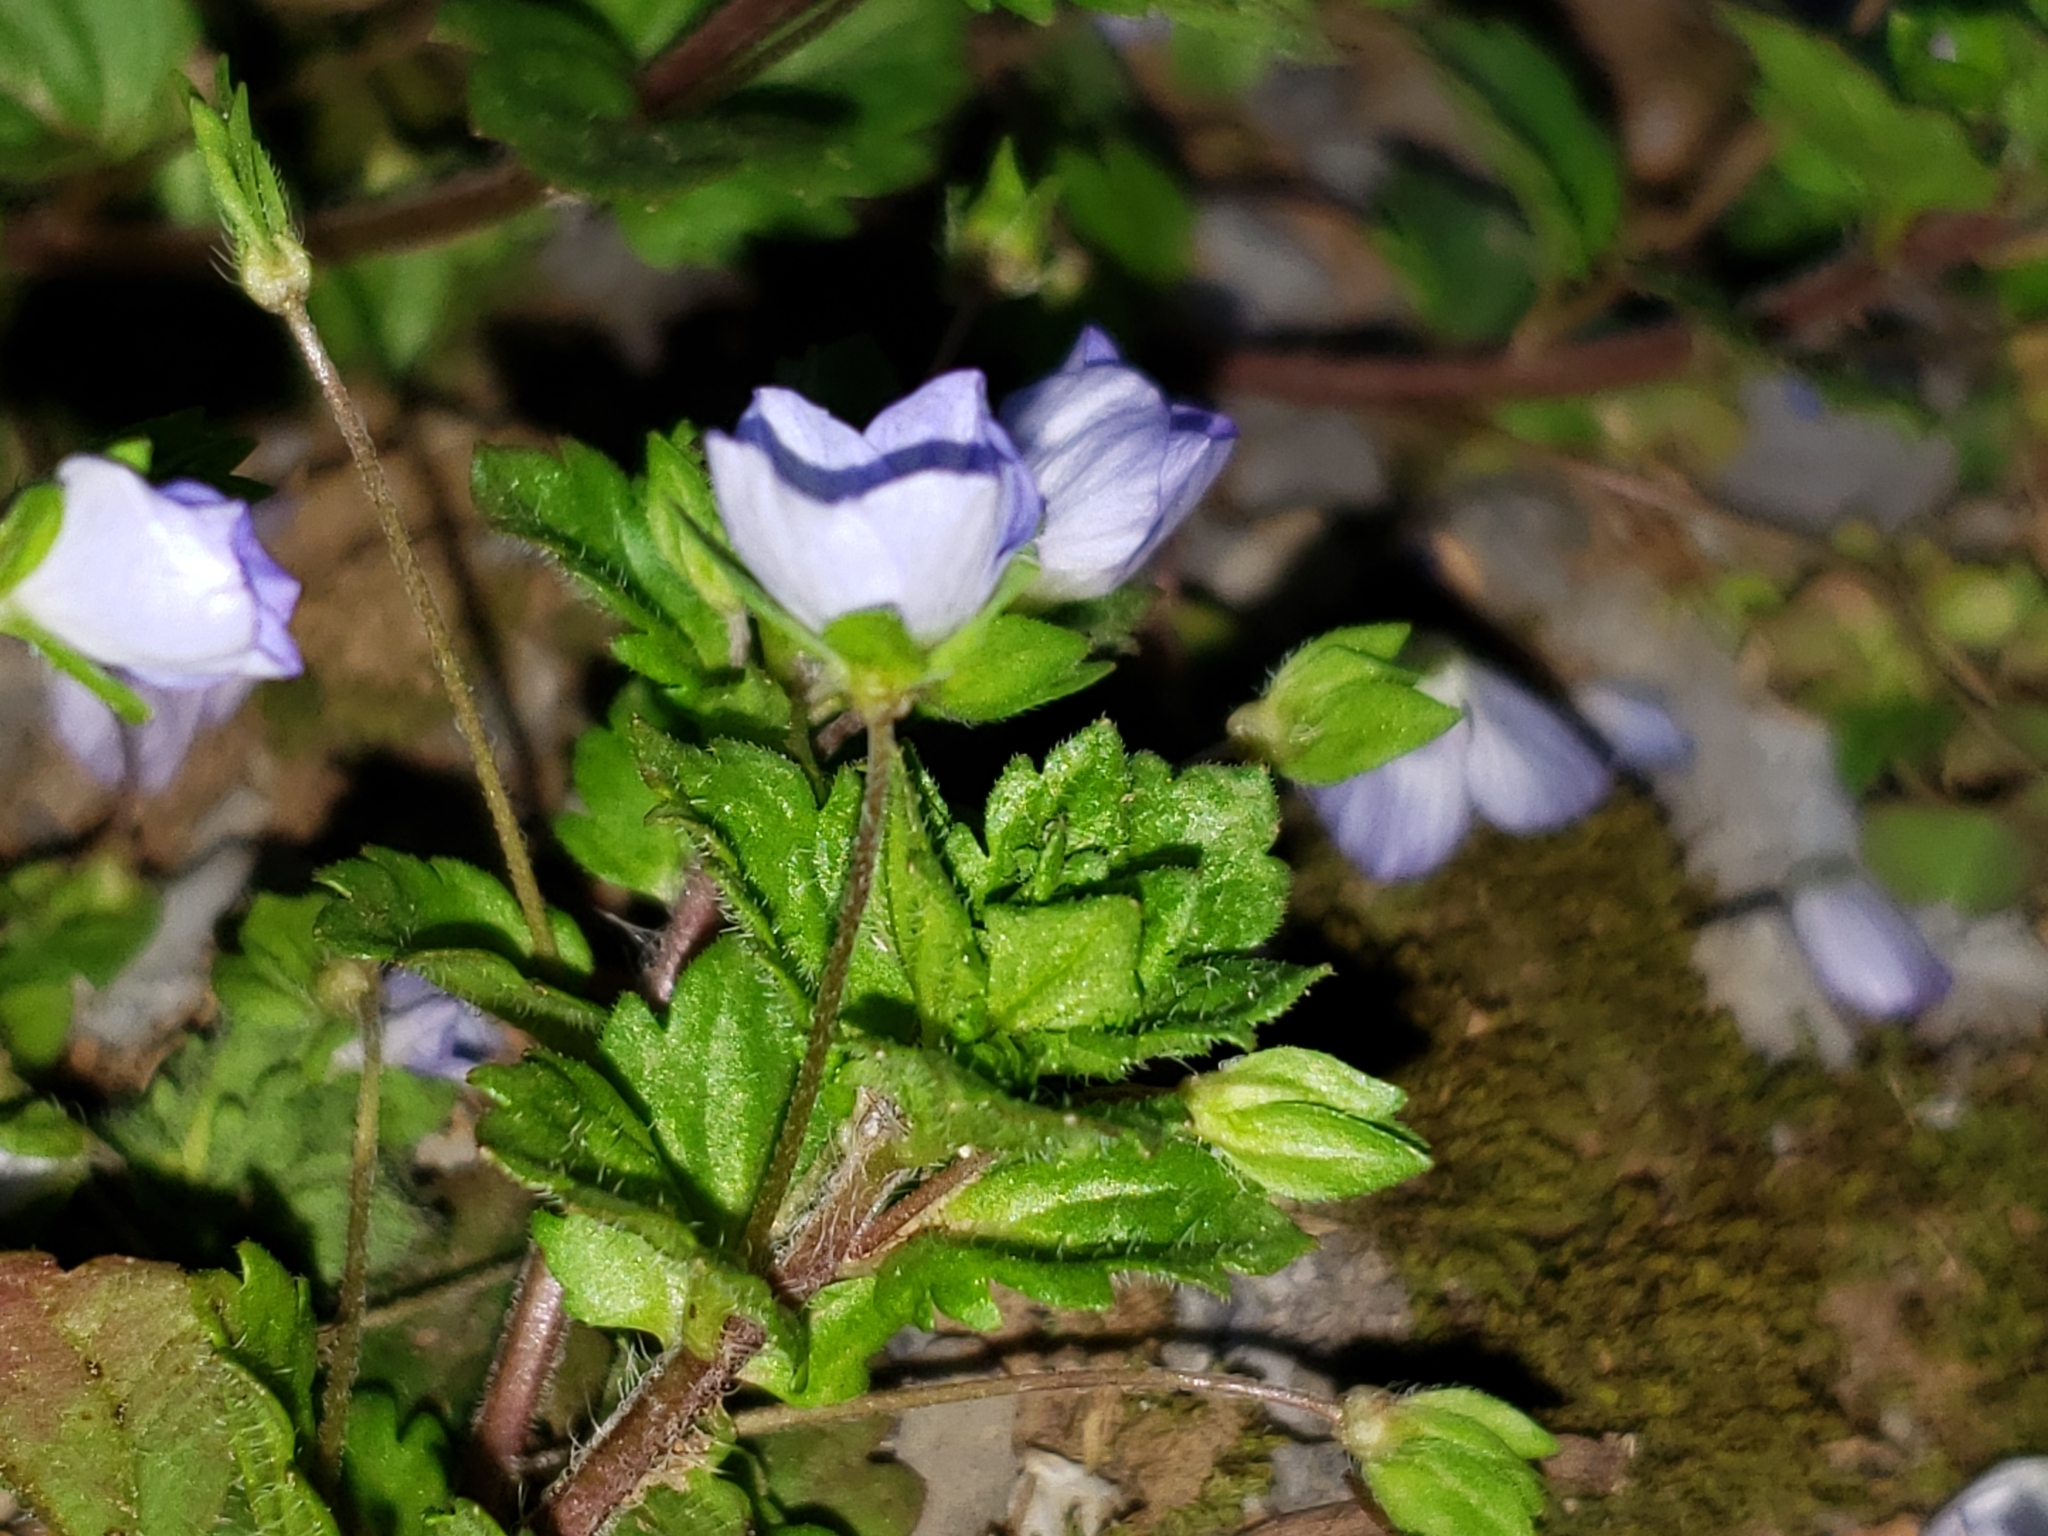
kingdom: Plantae
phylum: Tracheophyta
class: Magnoliopsida
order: Lamiales
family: Plantaginaceae
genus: Veronica
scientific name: Veronica persica
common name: Common field-speedwell
